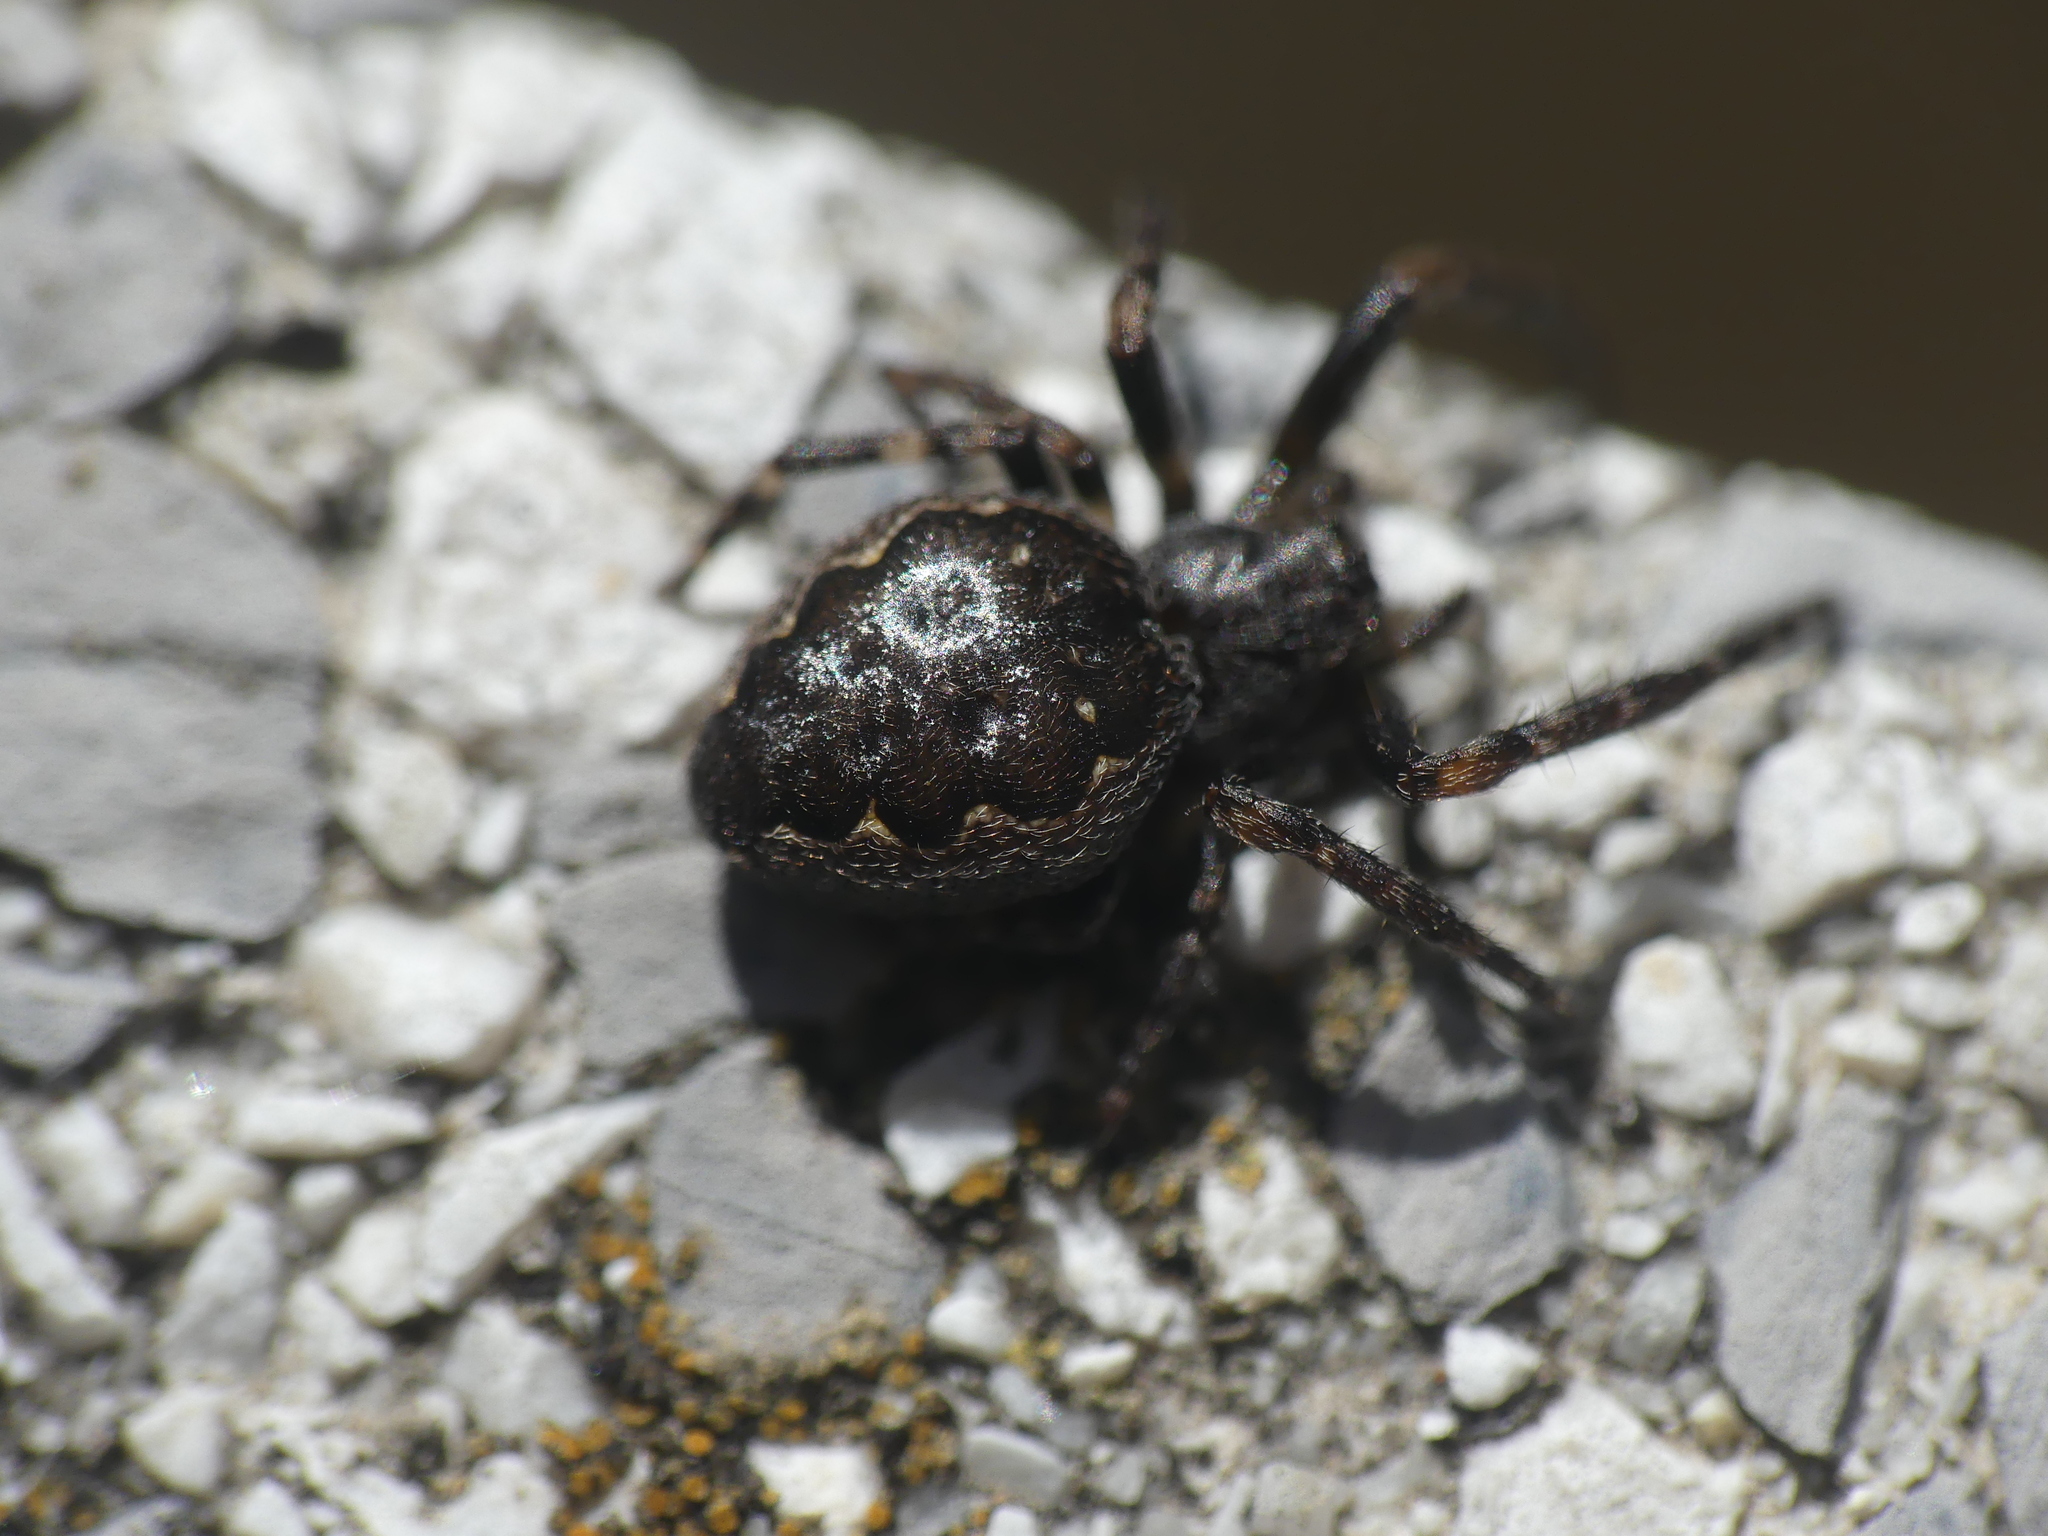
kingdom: Animalia
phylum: Arthropoda
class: Arachnida
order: Araneae
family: Araneidae
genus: Nuctenea
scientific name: Nuctenea umbratica
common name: Toad spider
